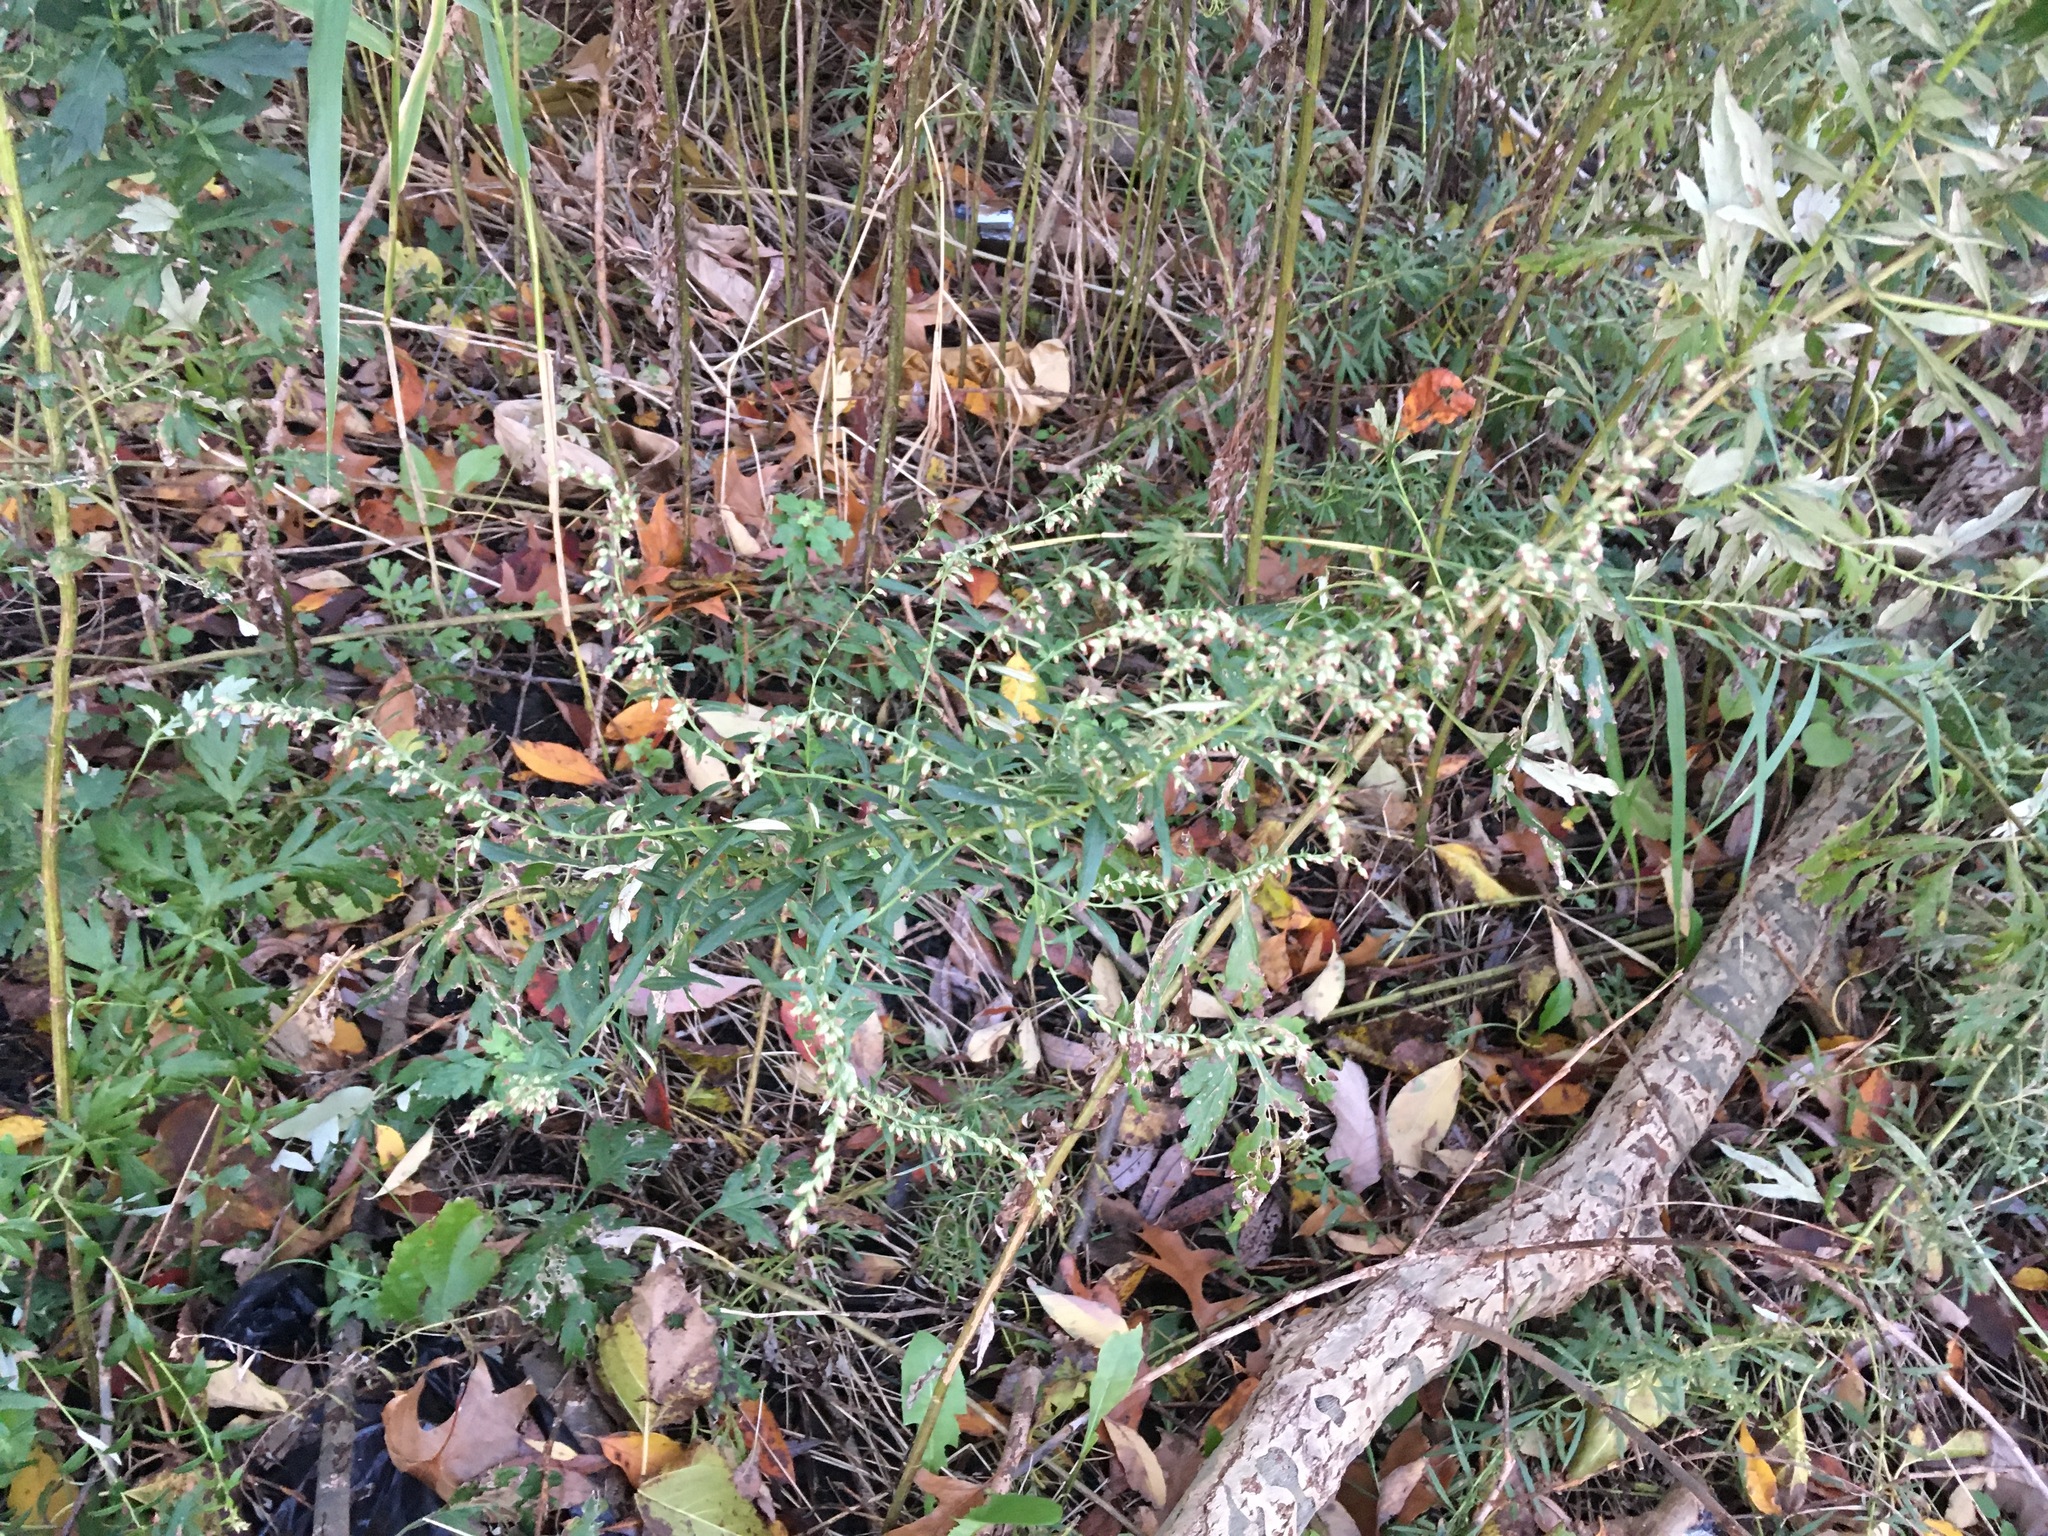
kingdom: Plantae
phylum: Tracheophyta
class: Magnoliopsida
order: Asterales
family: Asteraceae
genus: Artemisia
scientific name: Artemisia vulgaris
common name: Mugwort
